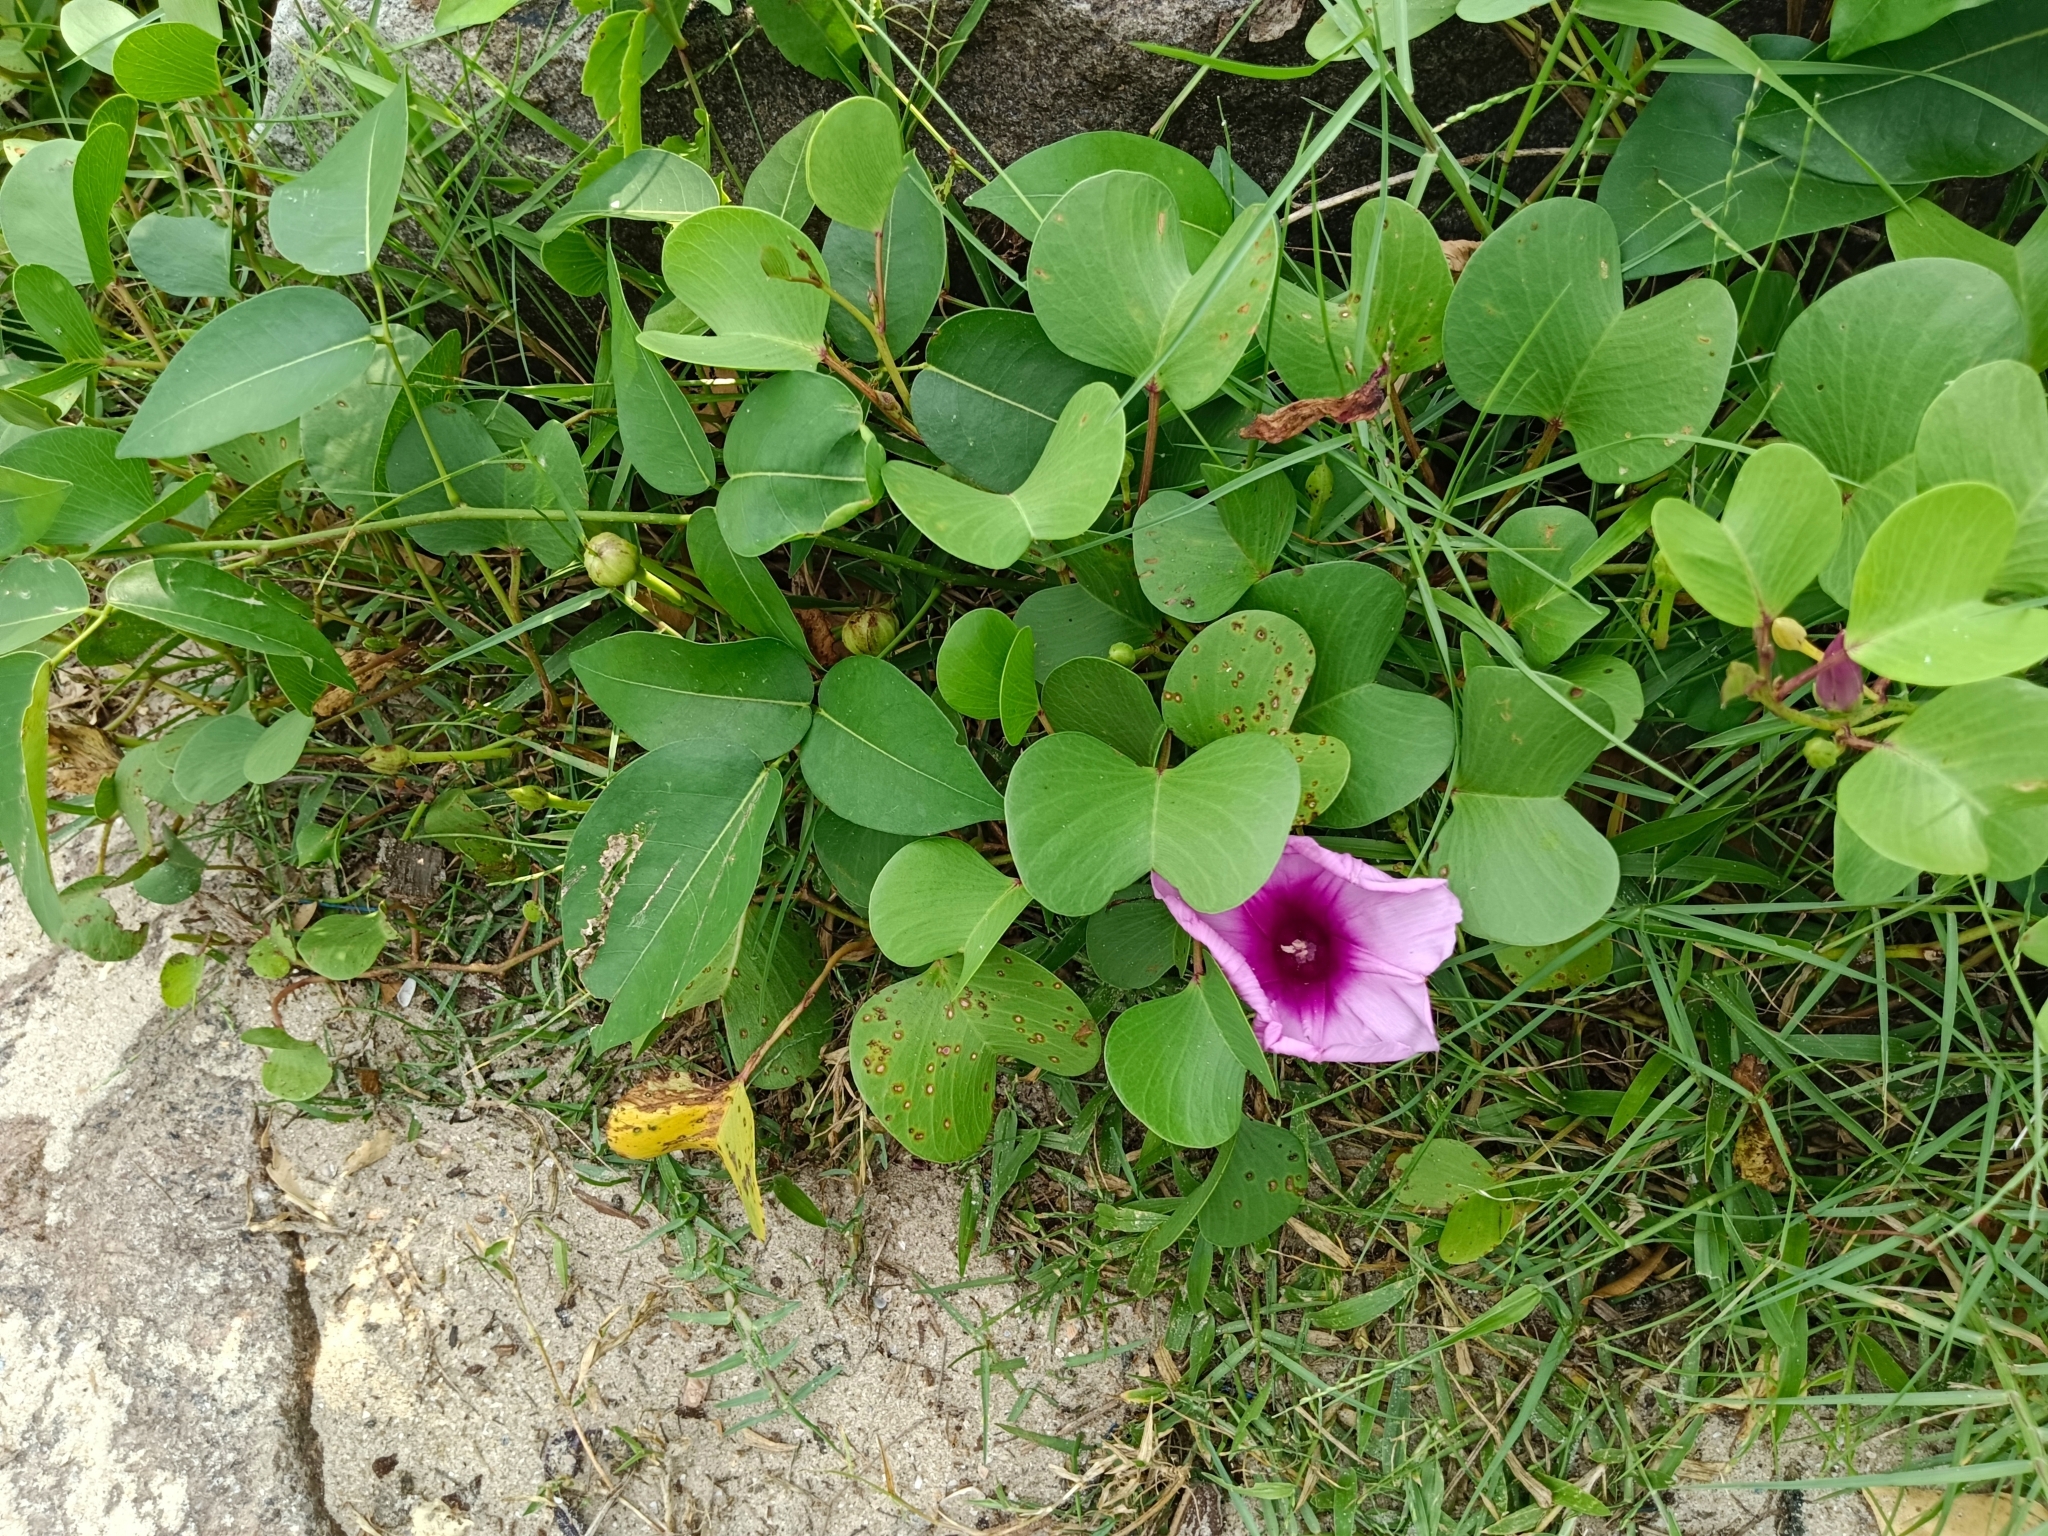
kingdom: Plantae
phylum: Tracheophyta
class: Magnoliopsida
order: Solanales
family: Convolvulaceae
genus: Ipomoea
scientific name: Ipomoea pes-caprae
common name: Beach morning glory
